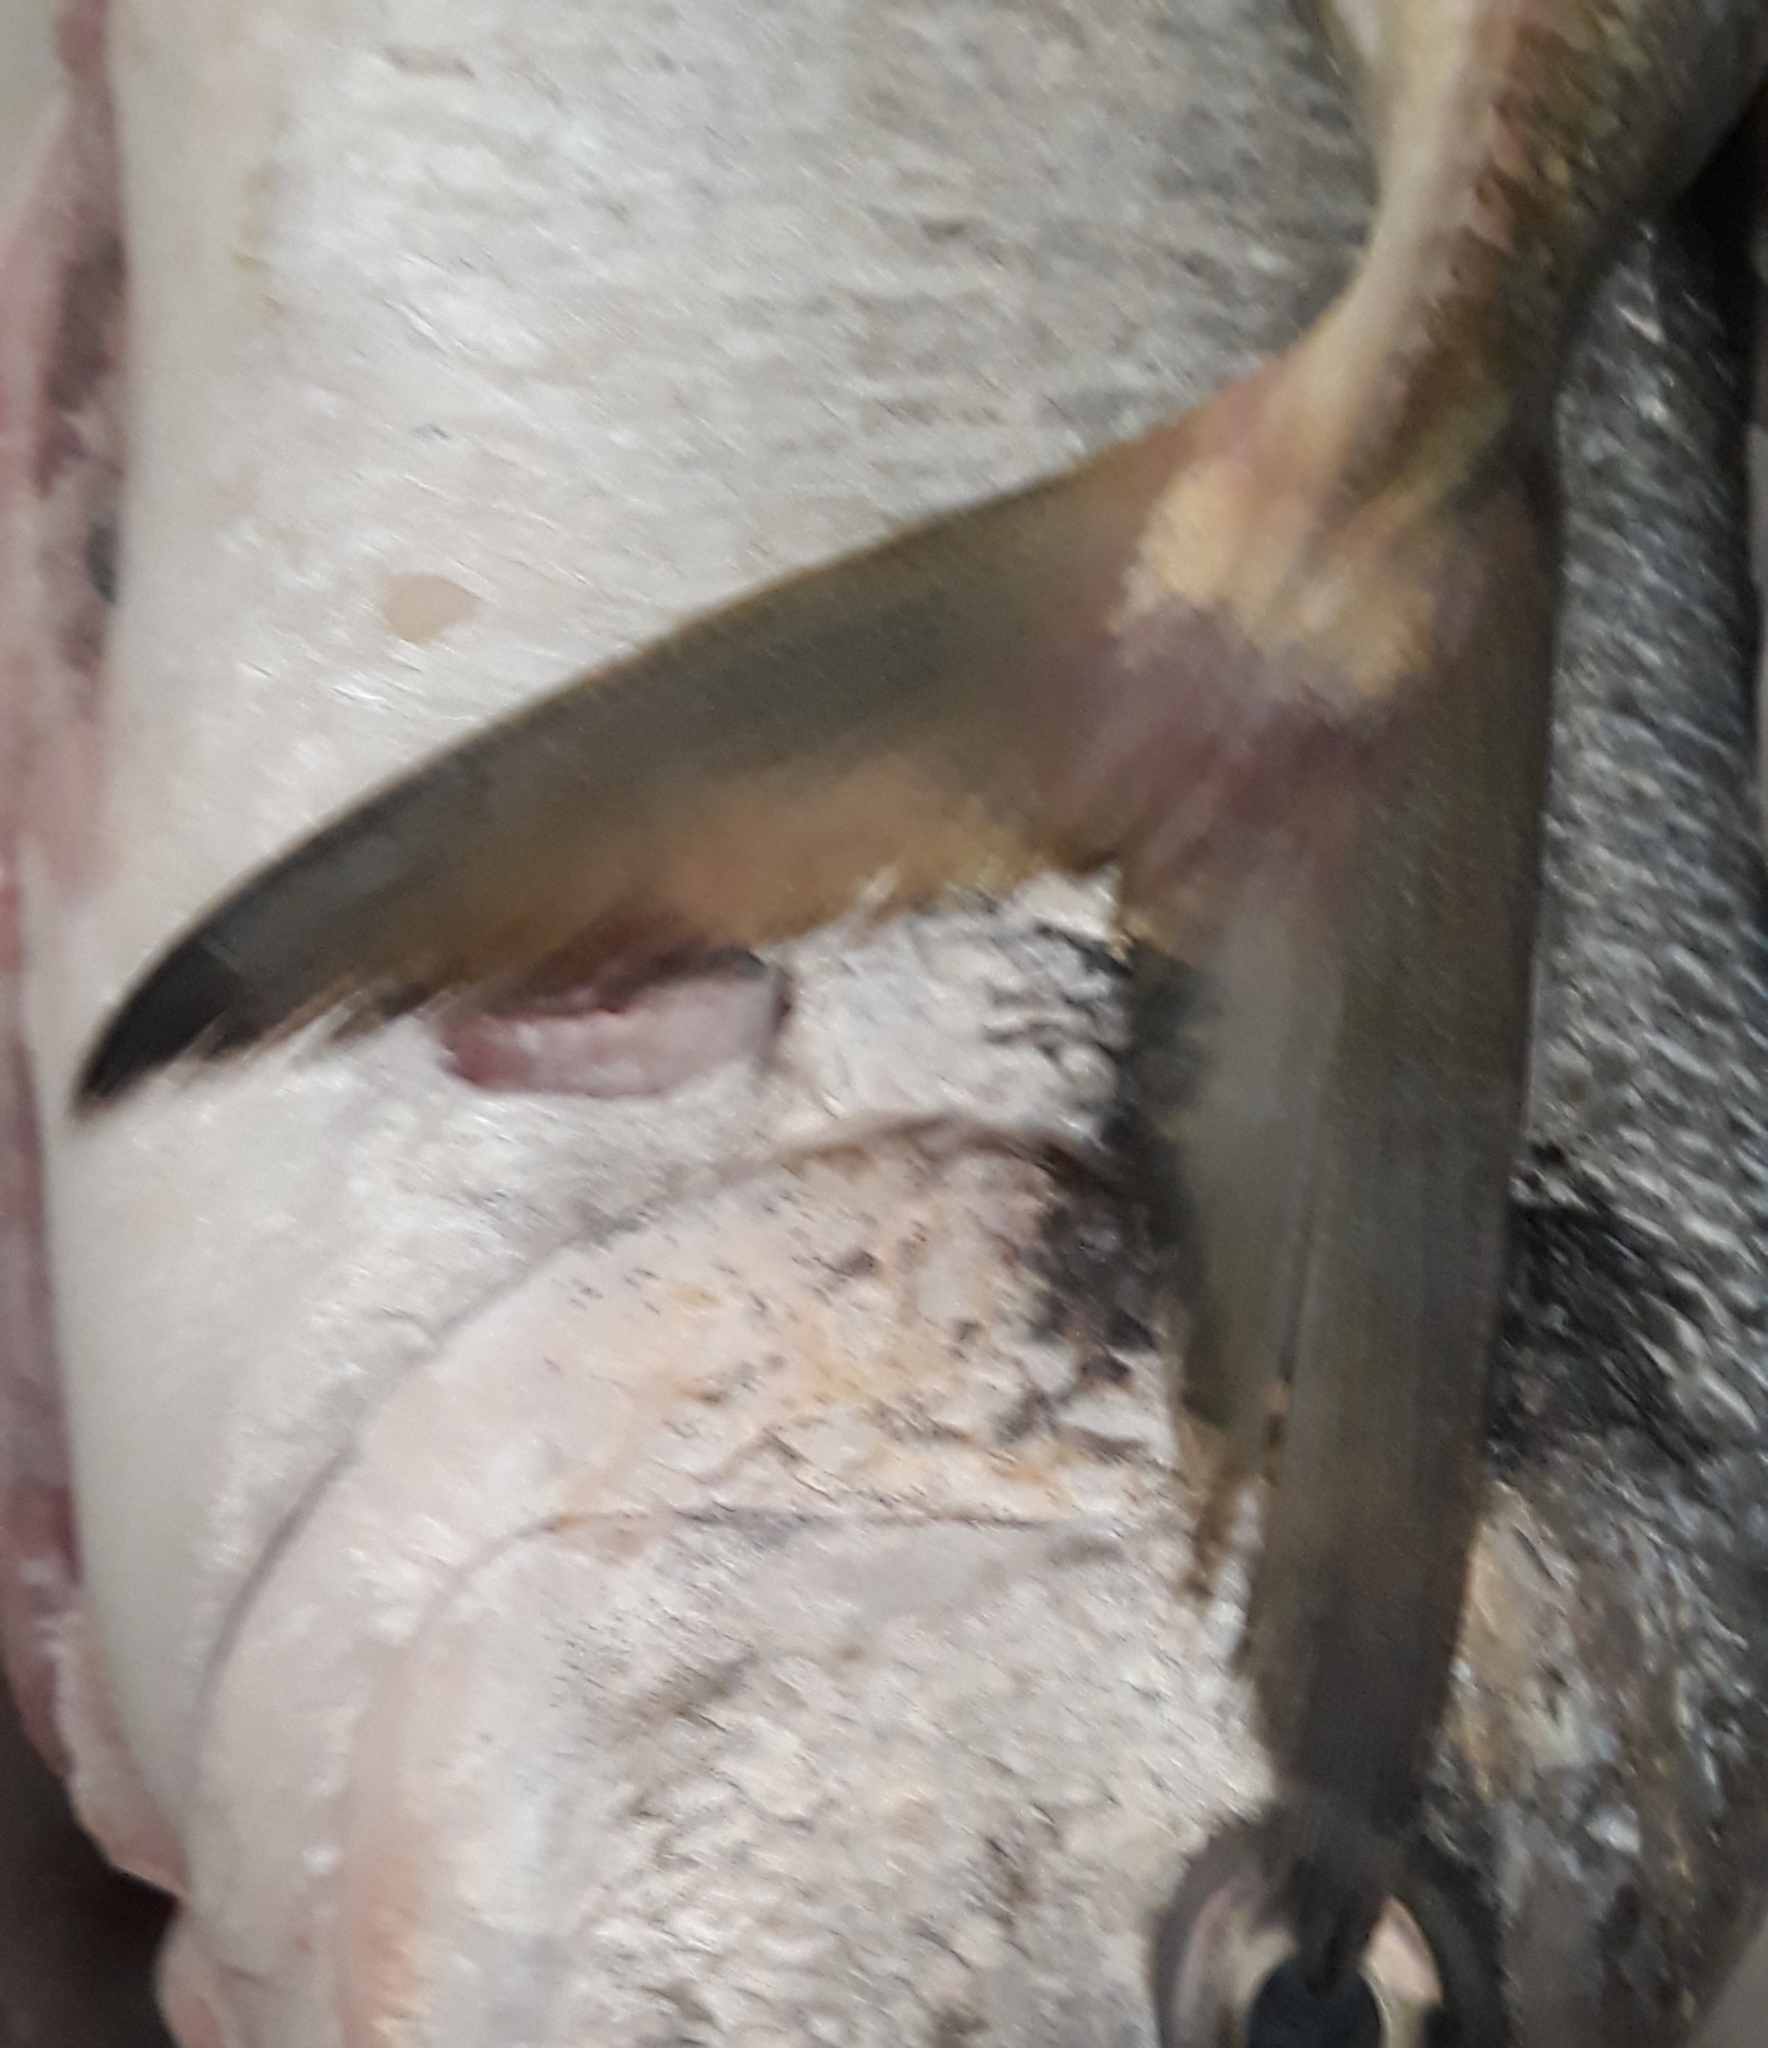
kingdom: Animalia
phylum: Chordata
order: Perciformes
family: Carangidae
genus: Caranx
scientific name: Caranx crysos
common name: Blue runner
